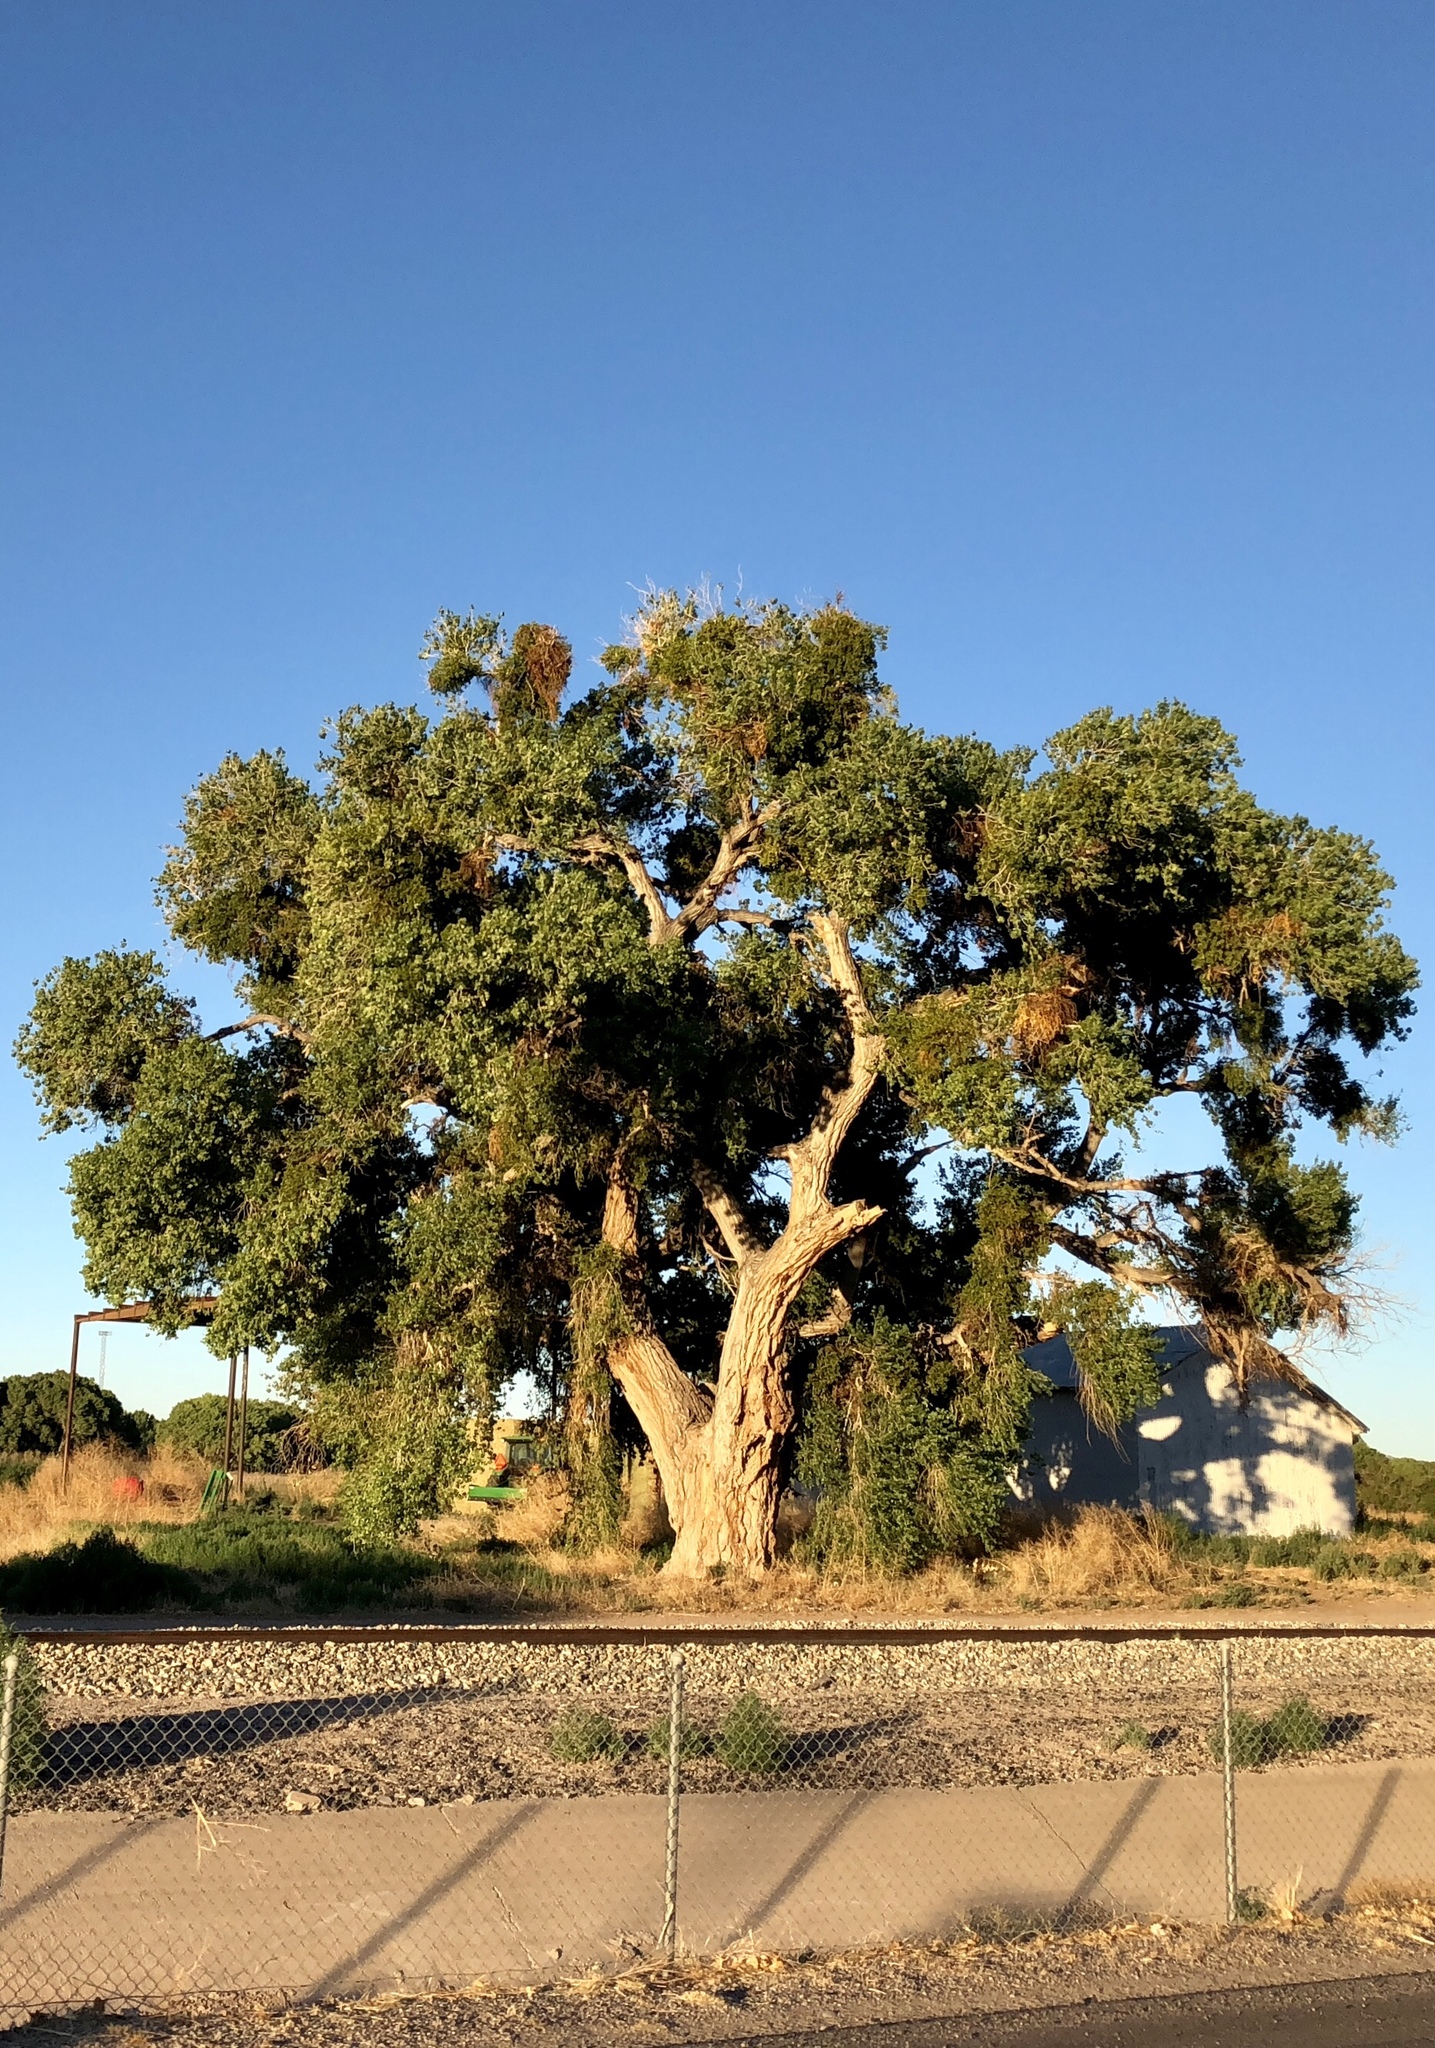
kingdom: Plantae
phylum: Tracheophyta
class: Magnoliopsida
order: Malpighiales
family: Salicaceae
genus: Populus
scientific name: Populus fremontii
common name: Fremont's cottonwood
